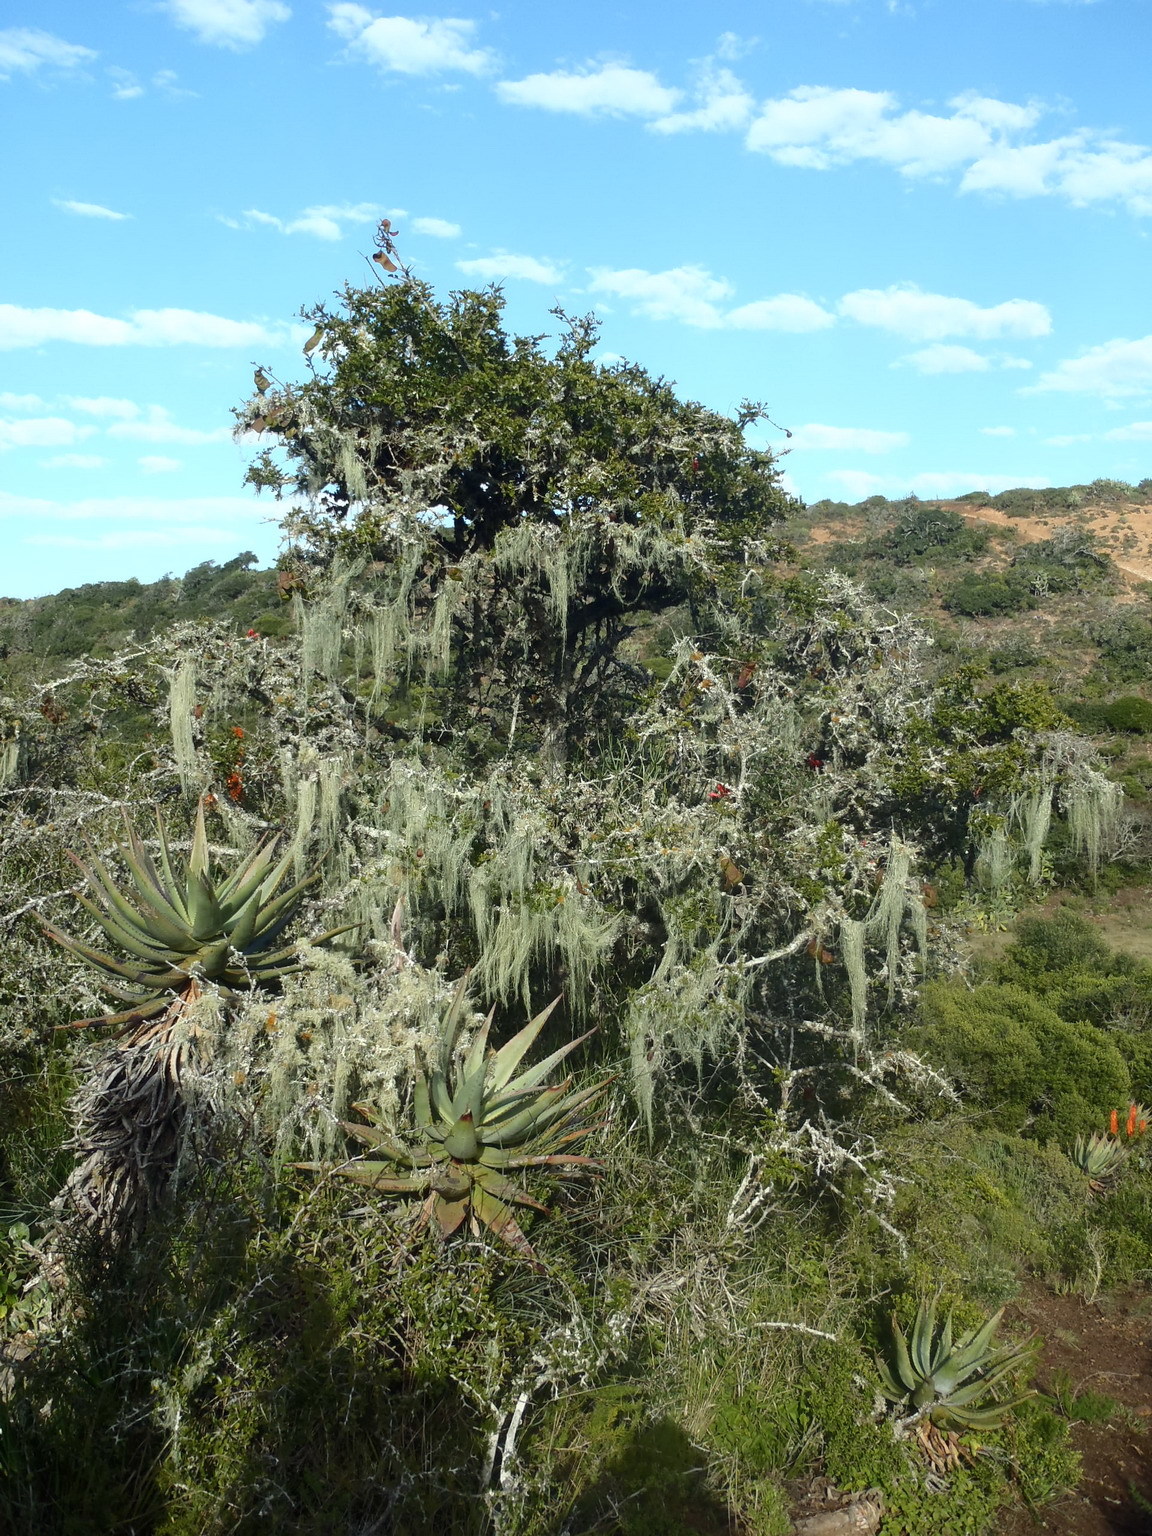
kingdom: Fungi
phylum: Ascomycota
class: Lecanoromycetes
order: Lecanorales
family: Ramalinaceae
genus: Ramalina
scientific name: Ramalina usnea
